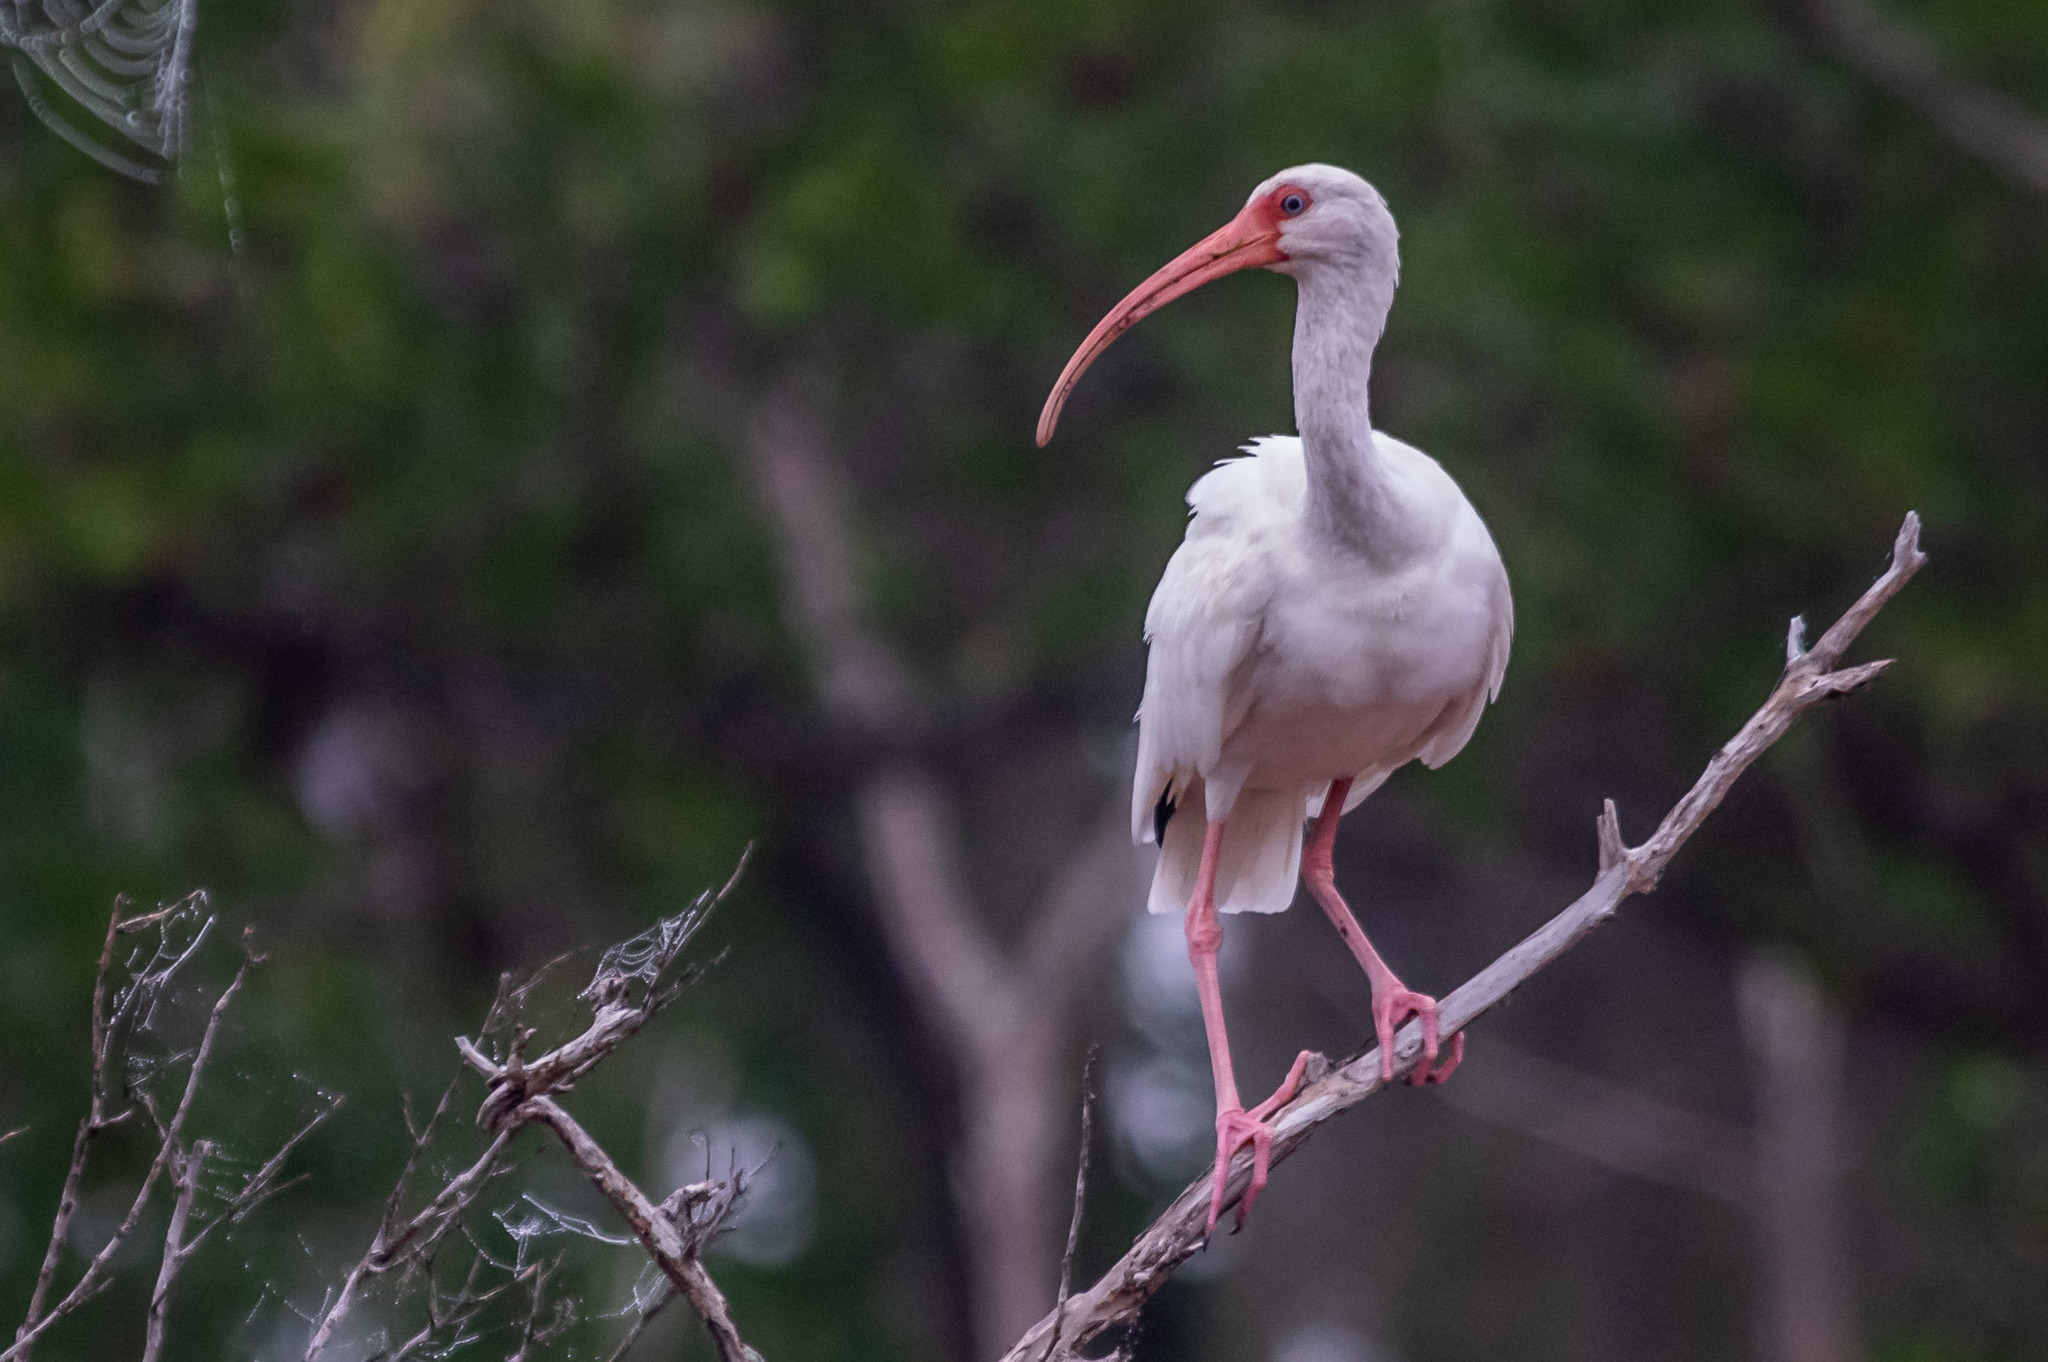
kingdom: Animalia
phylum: Chordata
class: Aves
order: Pelecaniformes
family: Threskiornithidae
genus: Eudocimus
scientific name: Eudocimus albus
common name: White ibis
